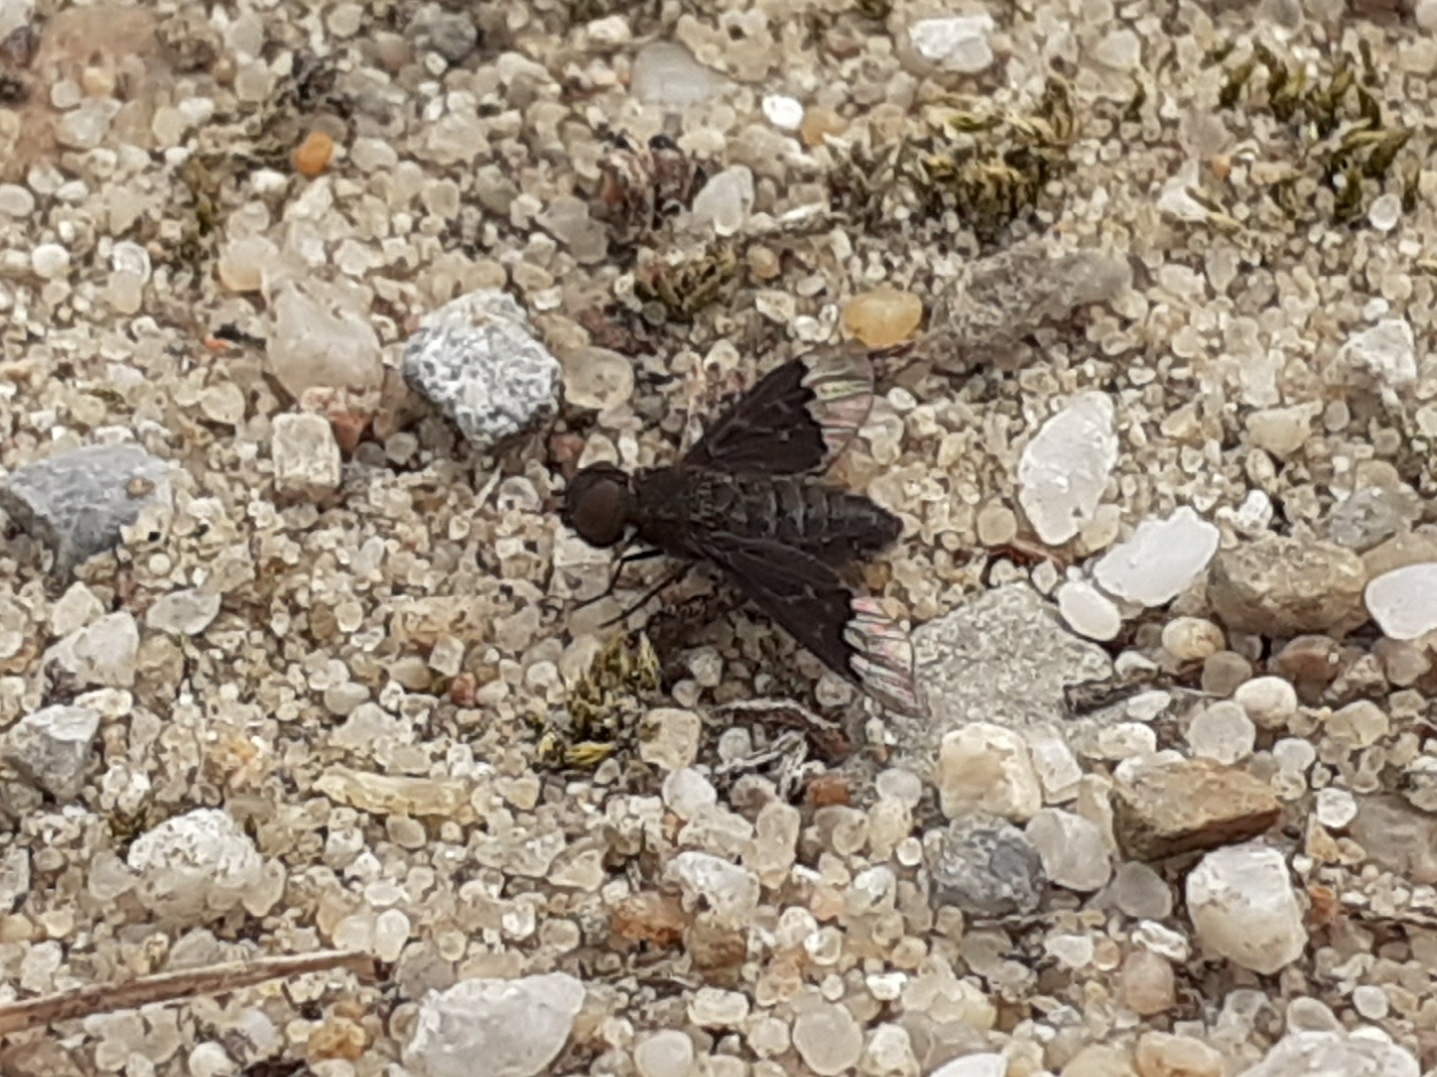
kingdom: Animalia
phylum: Arthropoda
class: Insecta
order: Diptera
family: Bombyliidae
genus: Hemipenthes
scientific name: Hemipenthes morio
